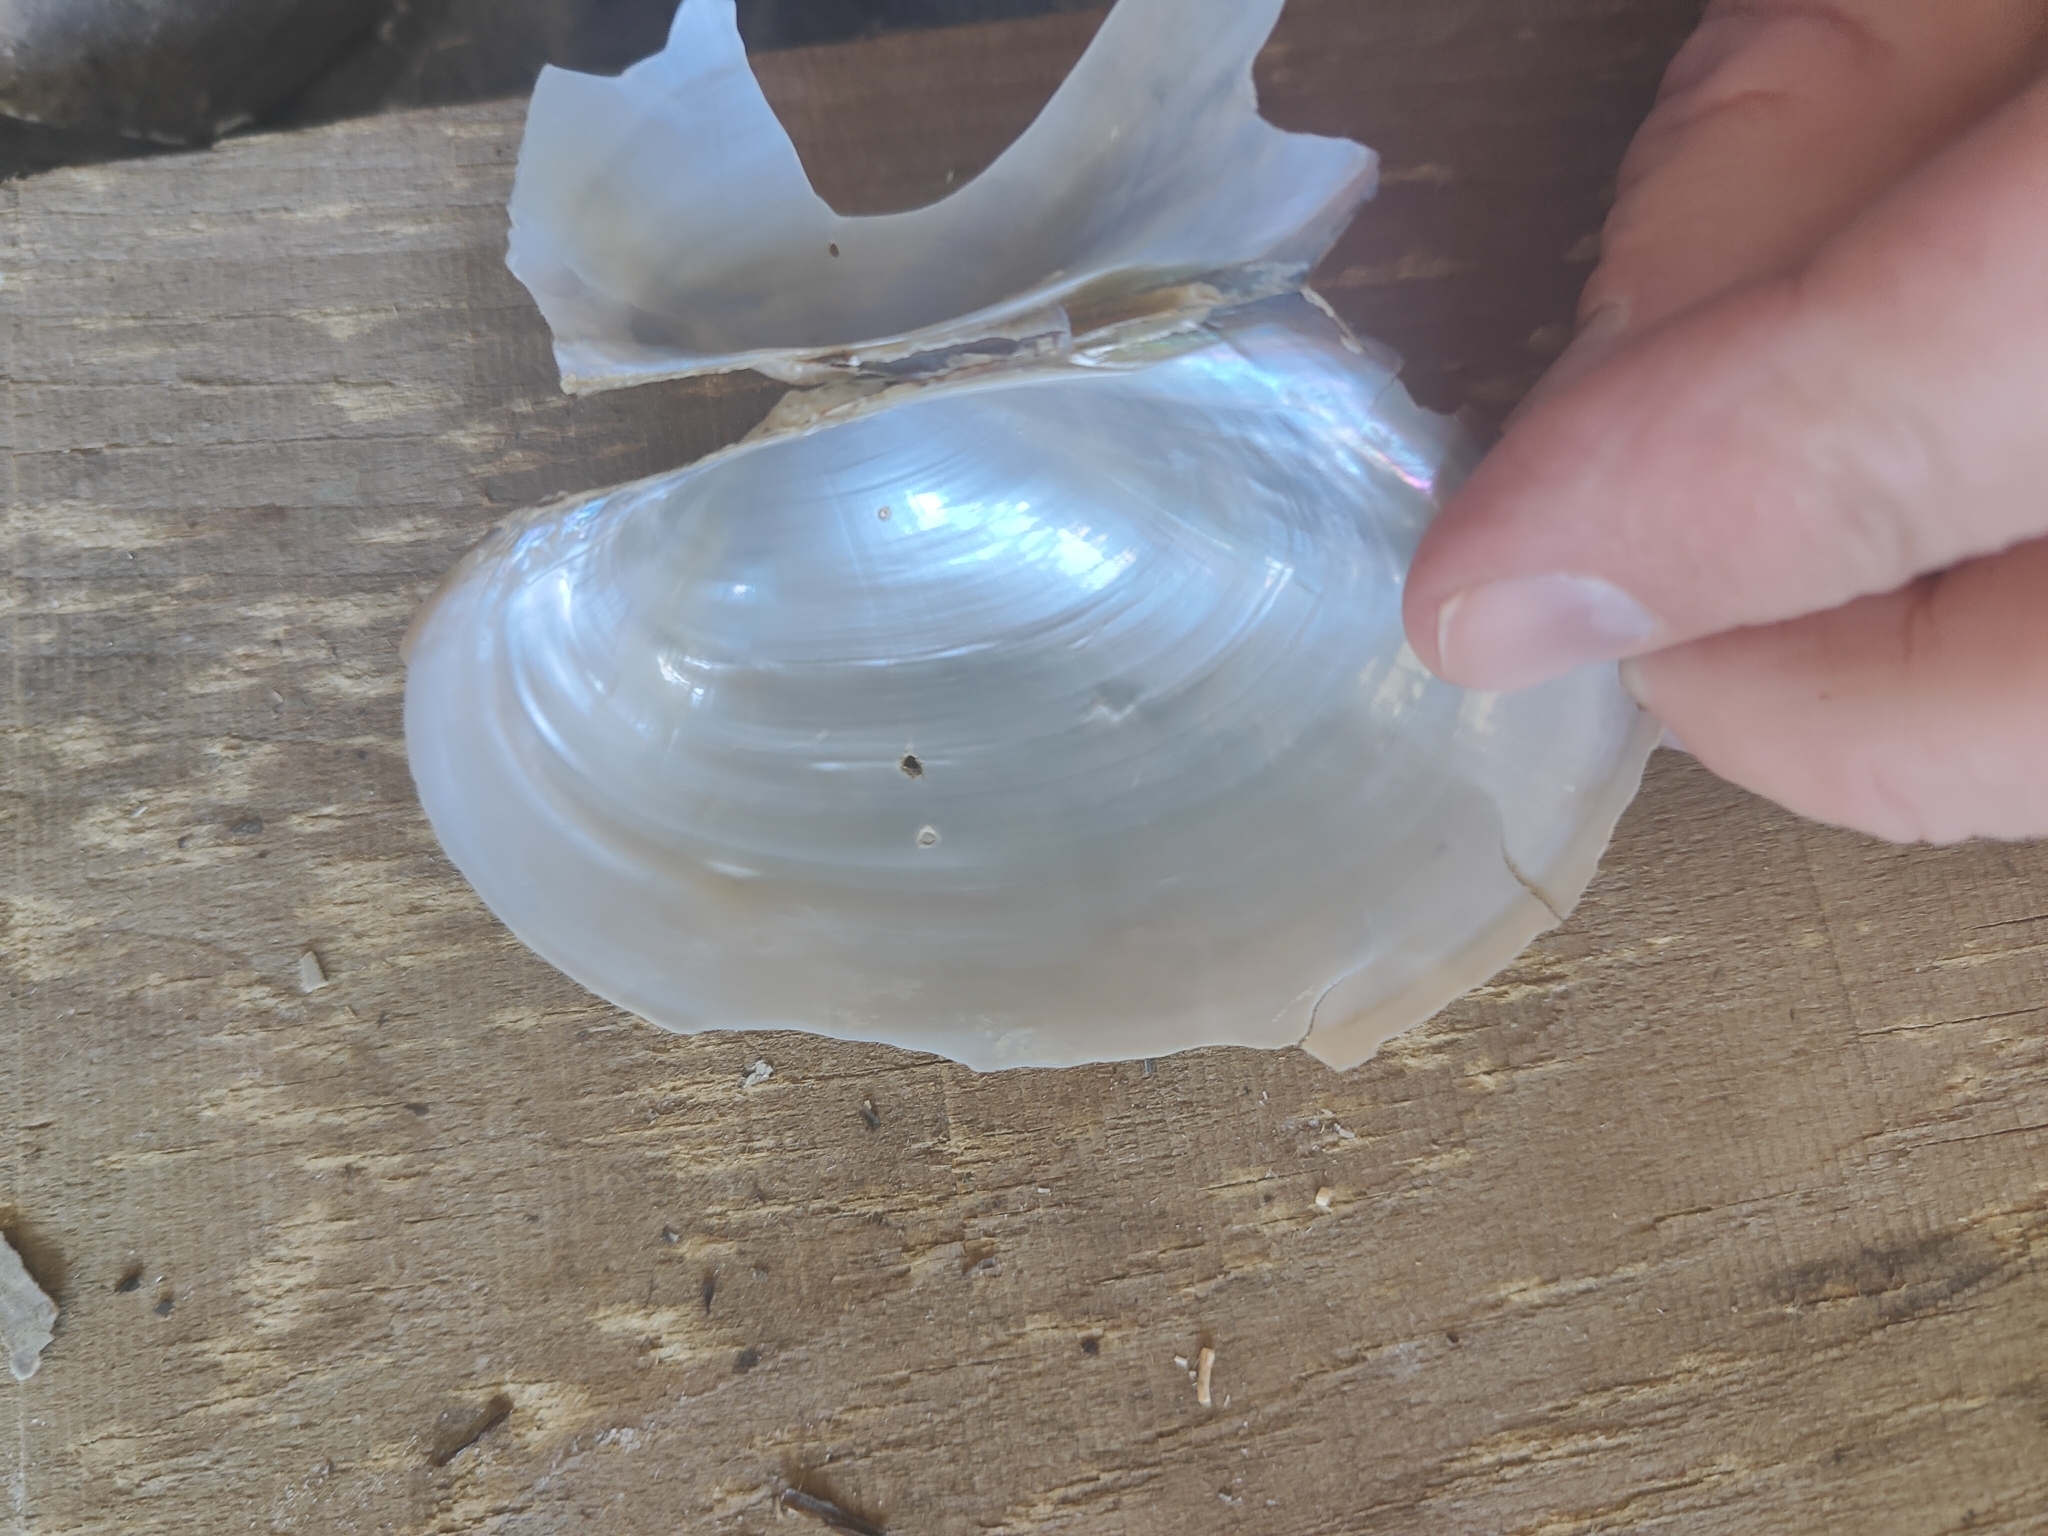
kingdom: Animalia
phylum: Mollusca
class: Bivalvia
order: Unionida
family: Unionidae
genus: Pyganodon
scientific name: Pyganodon grandis
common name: Giant floater
